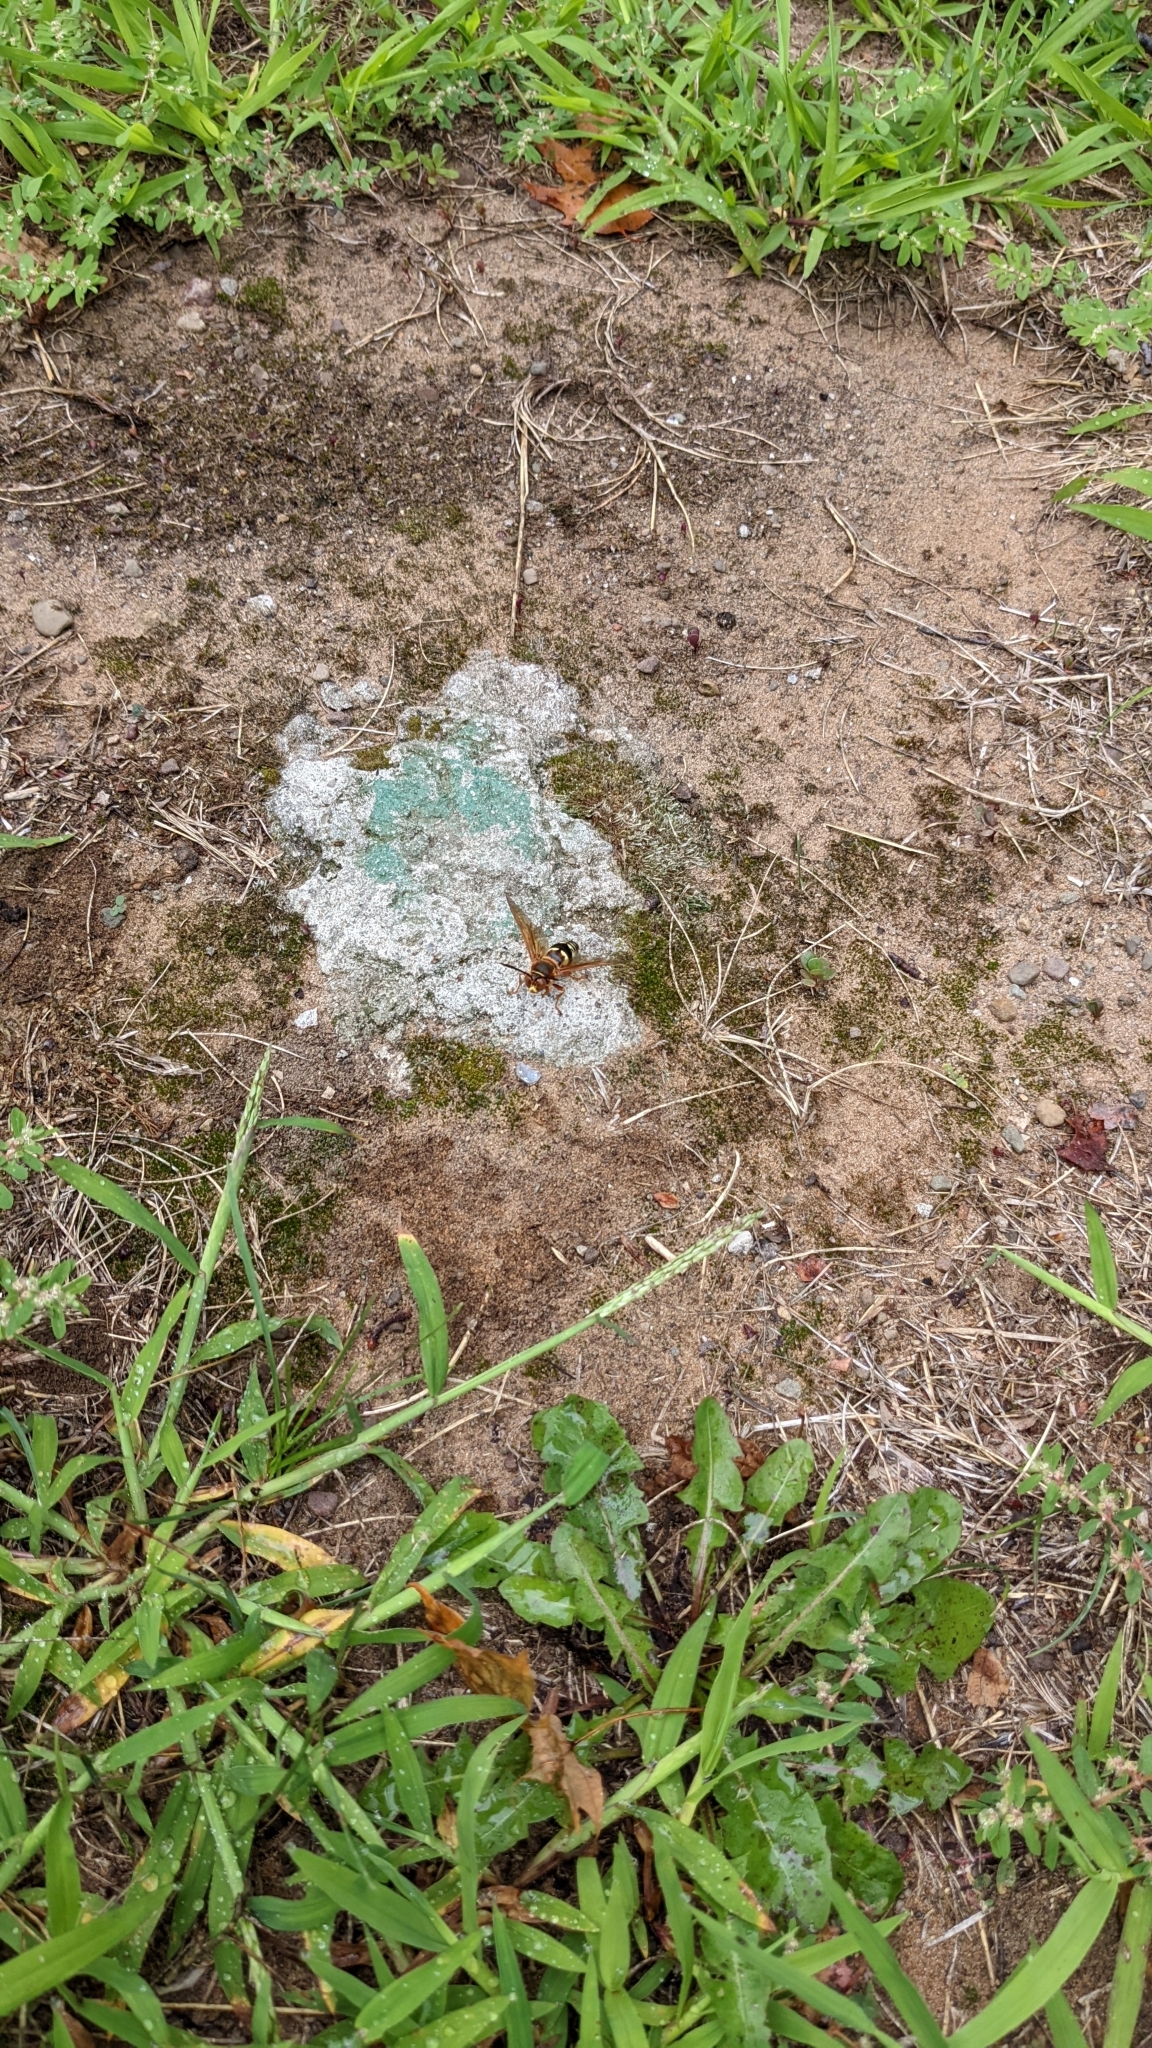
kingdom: Animalia
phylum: Arthropoda
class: Insecta
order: Hymenoptera
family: Crabronidae
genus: Sphecius
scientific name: Sphecius speciosus
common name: Cicada killer
